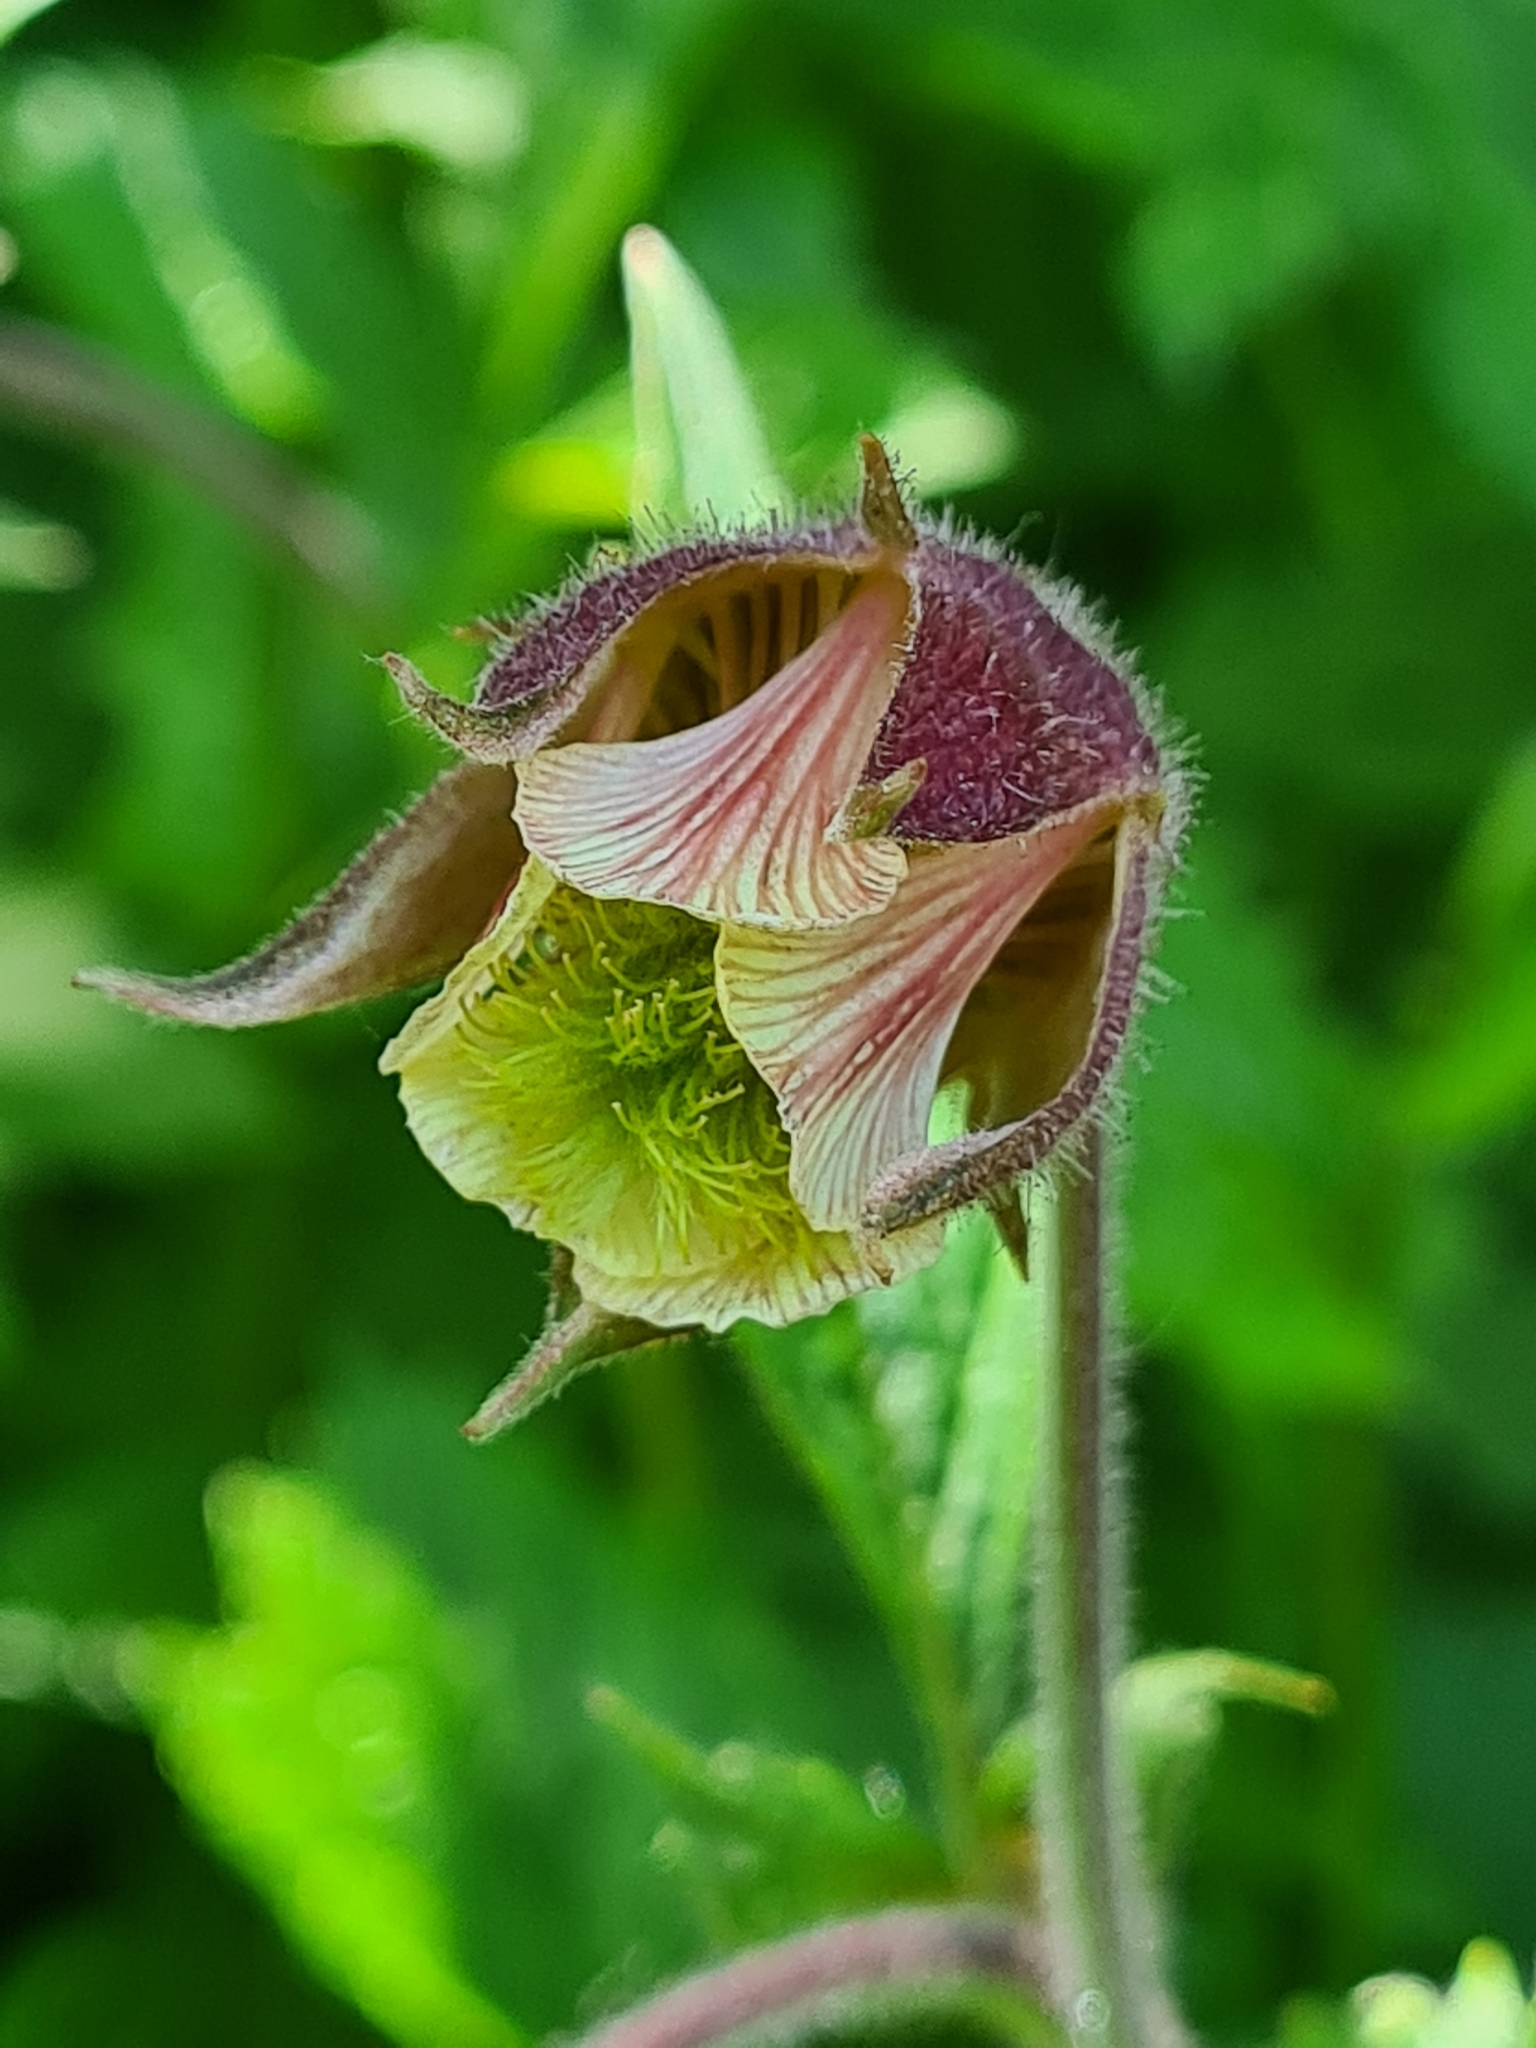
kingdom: Plantae
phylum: Tracheophyta
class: Magnoliopsida
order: Rosales
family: Rosaceae
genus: Geum
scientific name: Geum rivale
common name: Water avens
